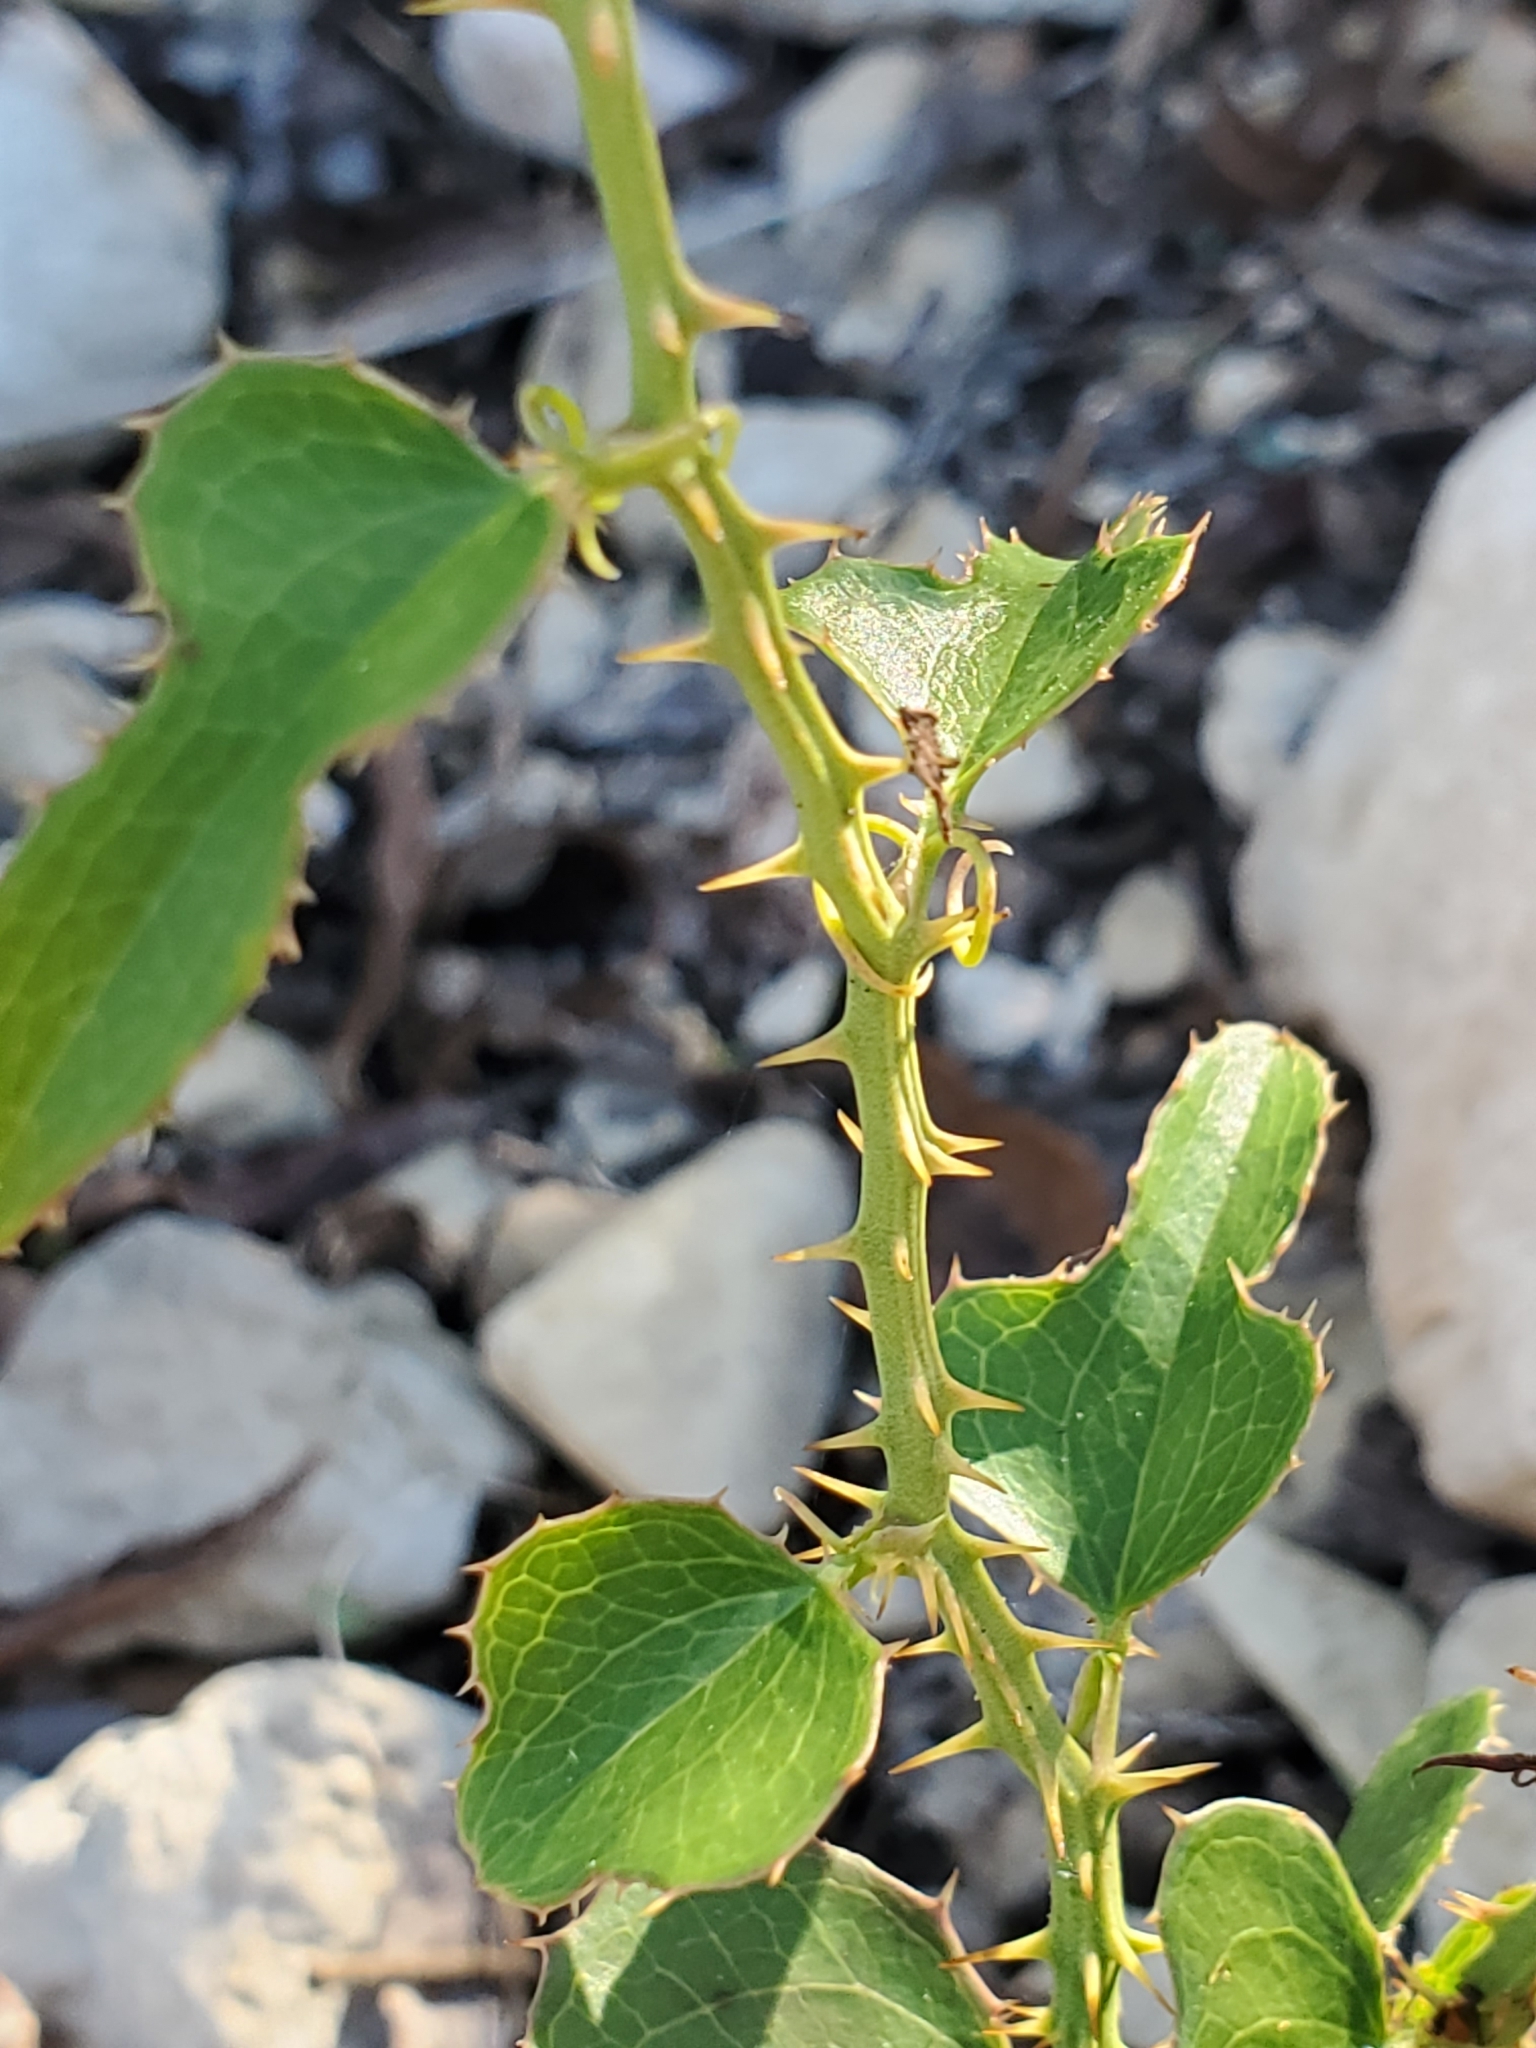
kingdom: Plantae
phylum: Tracheophyta
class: Liliopsida
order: Liliales
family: Smilacaceae
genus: Smilax
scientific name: Smilax bona-nox
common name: Catbrier
